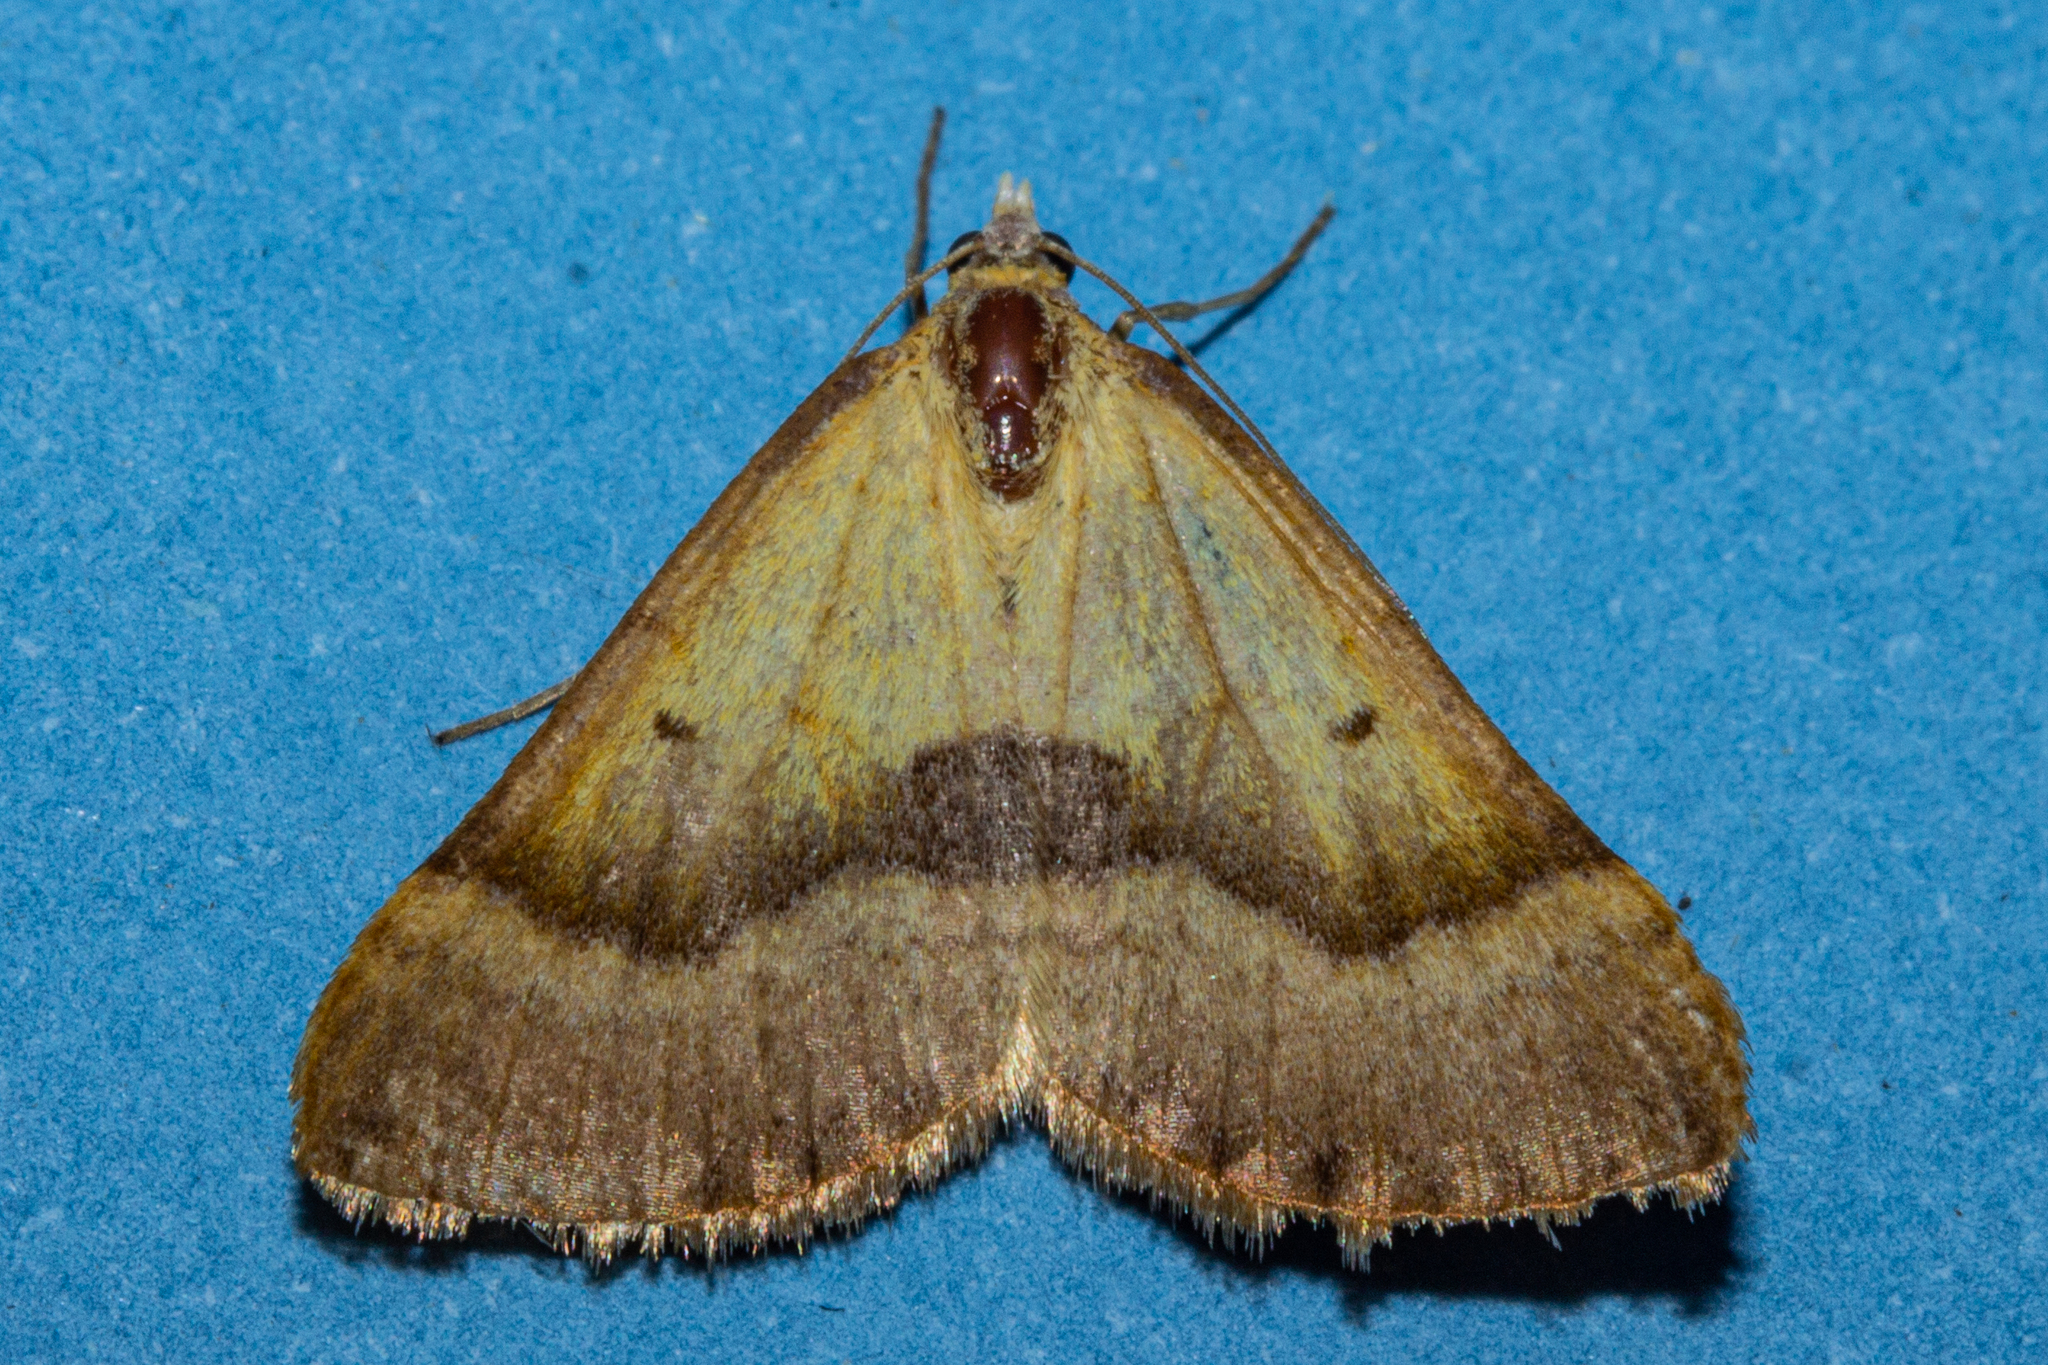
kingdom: Animalia
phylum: Arthropoda
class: Insecta
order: Lepidoptera
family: Geometridae
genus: Anachloris
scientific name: Anachloris subochraria
